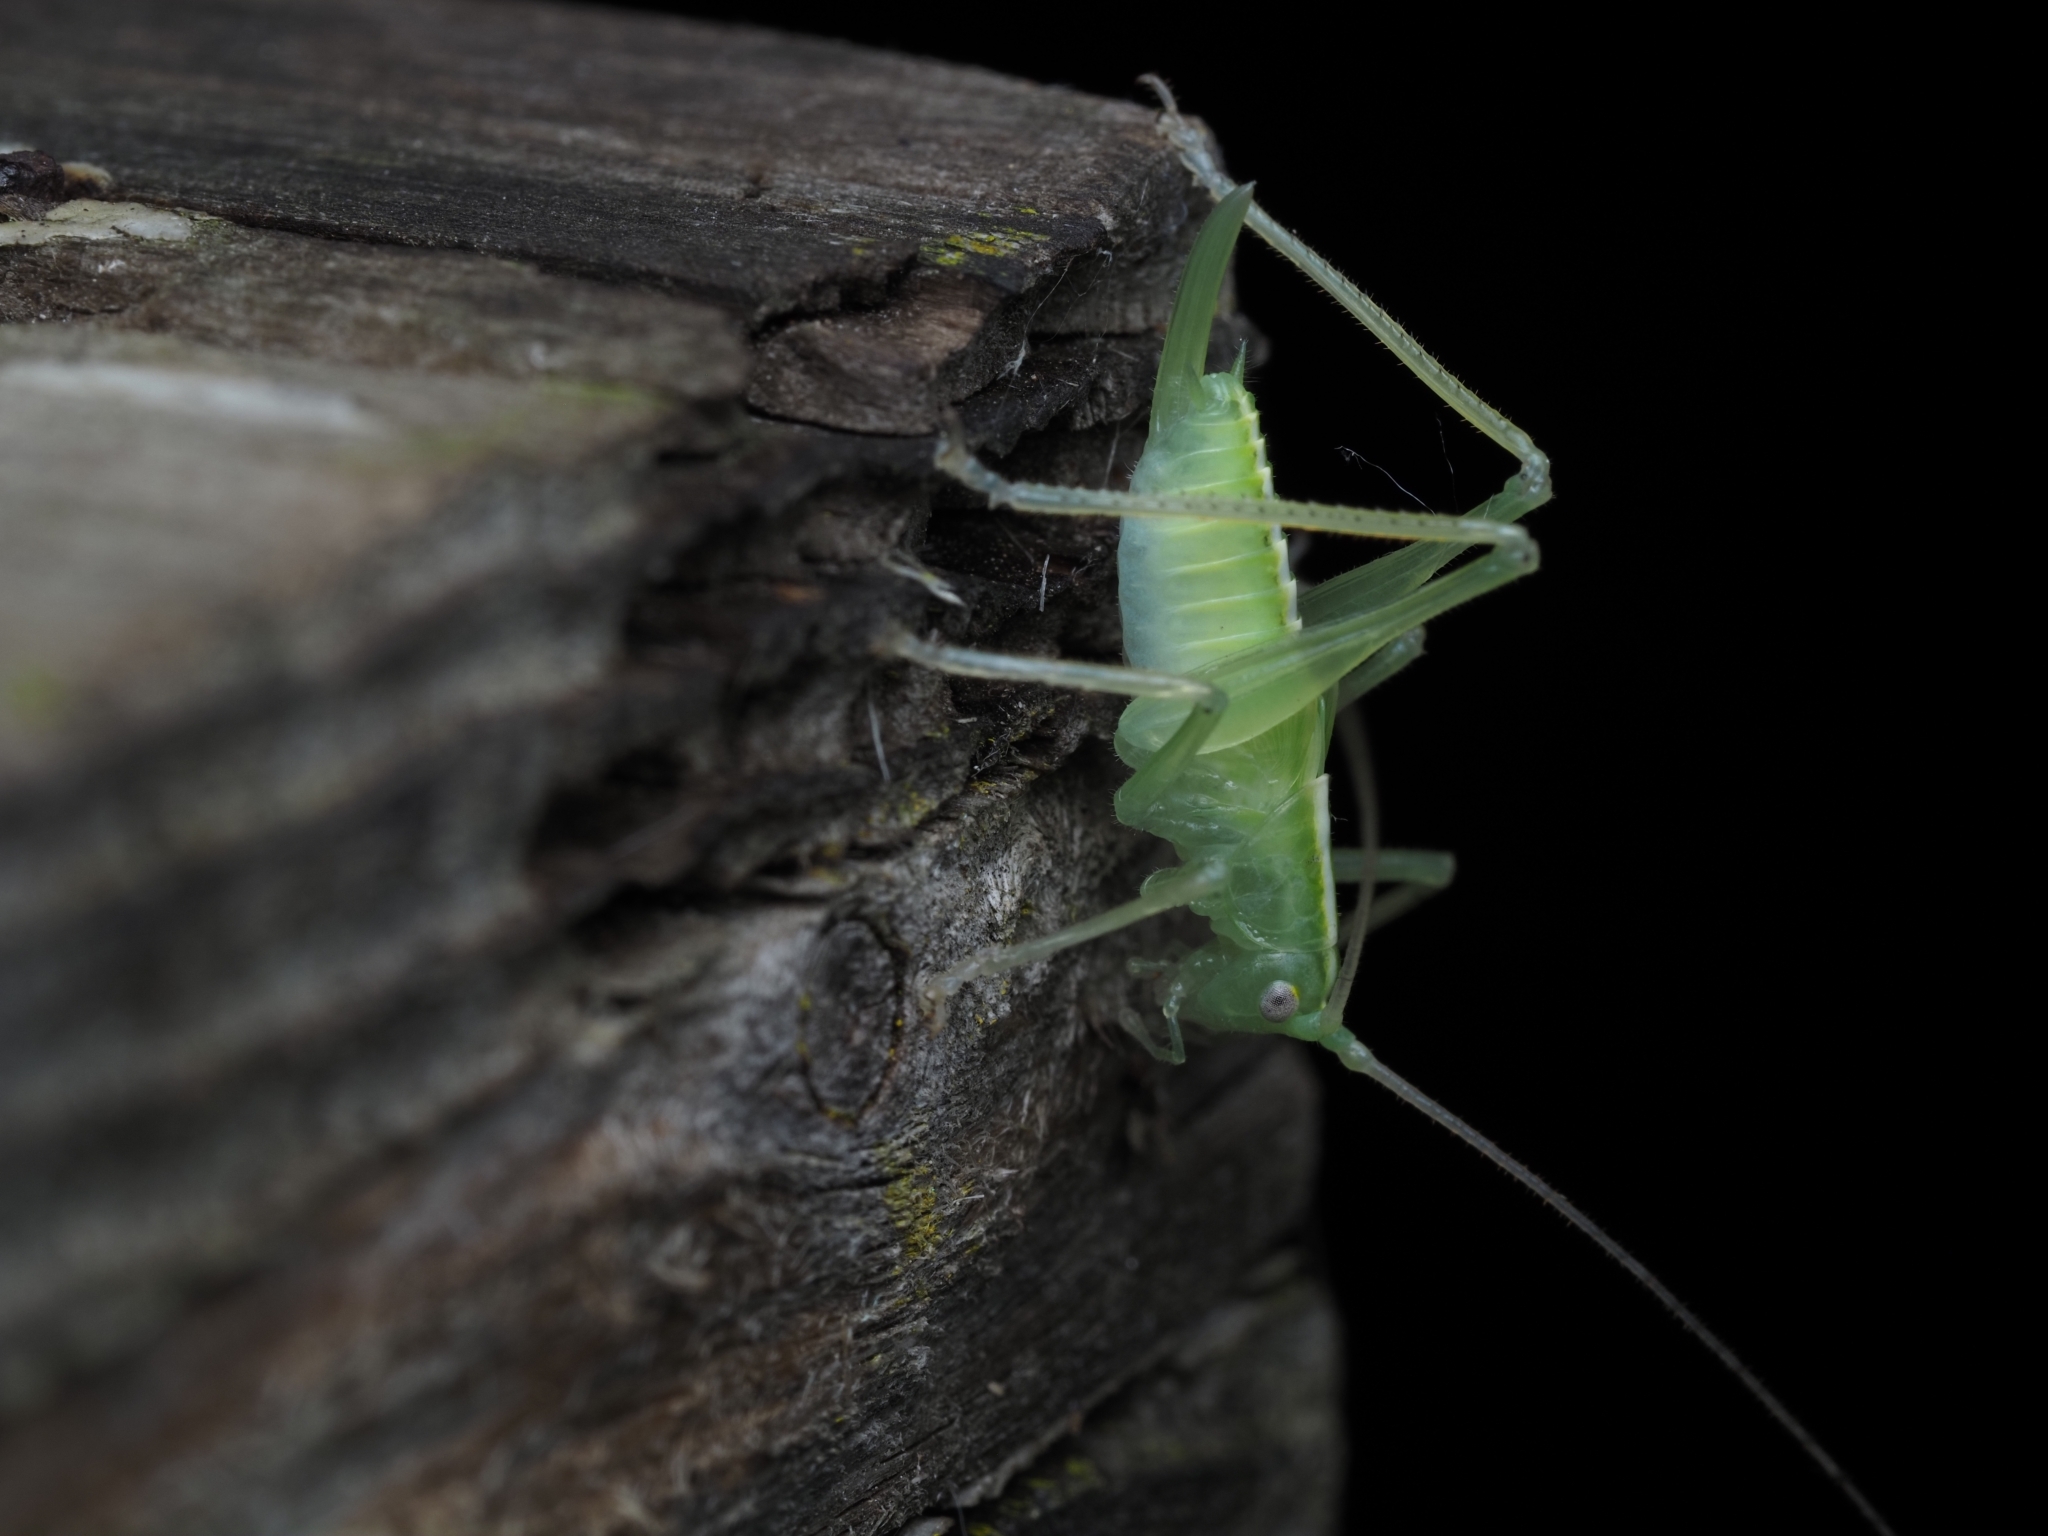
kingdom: Animalia
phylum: Arthropoda
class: Insecta
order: Orthoptera
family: Tettigoniidae
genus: Meconema
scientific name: Meconema thalassinum
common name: Oak bush-cricket
